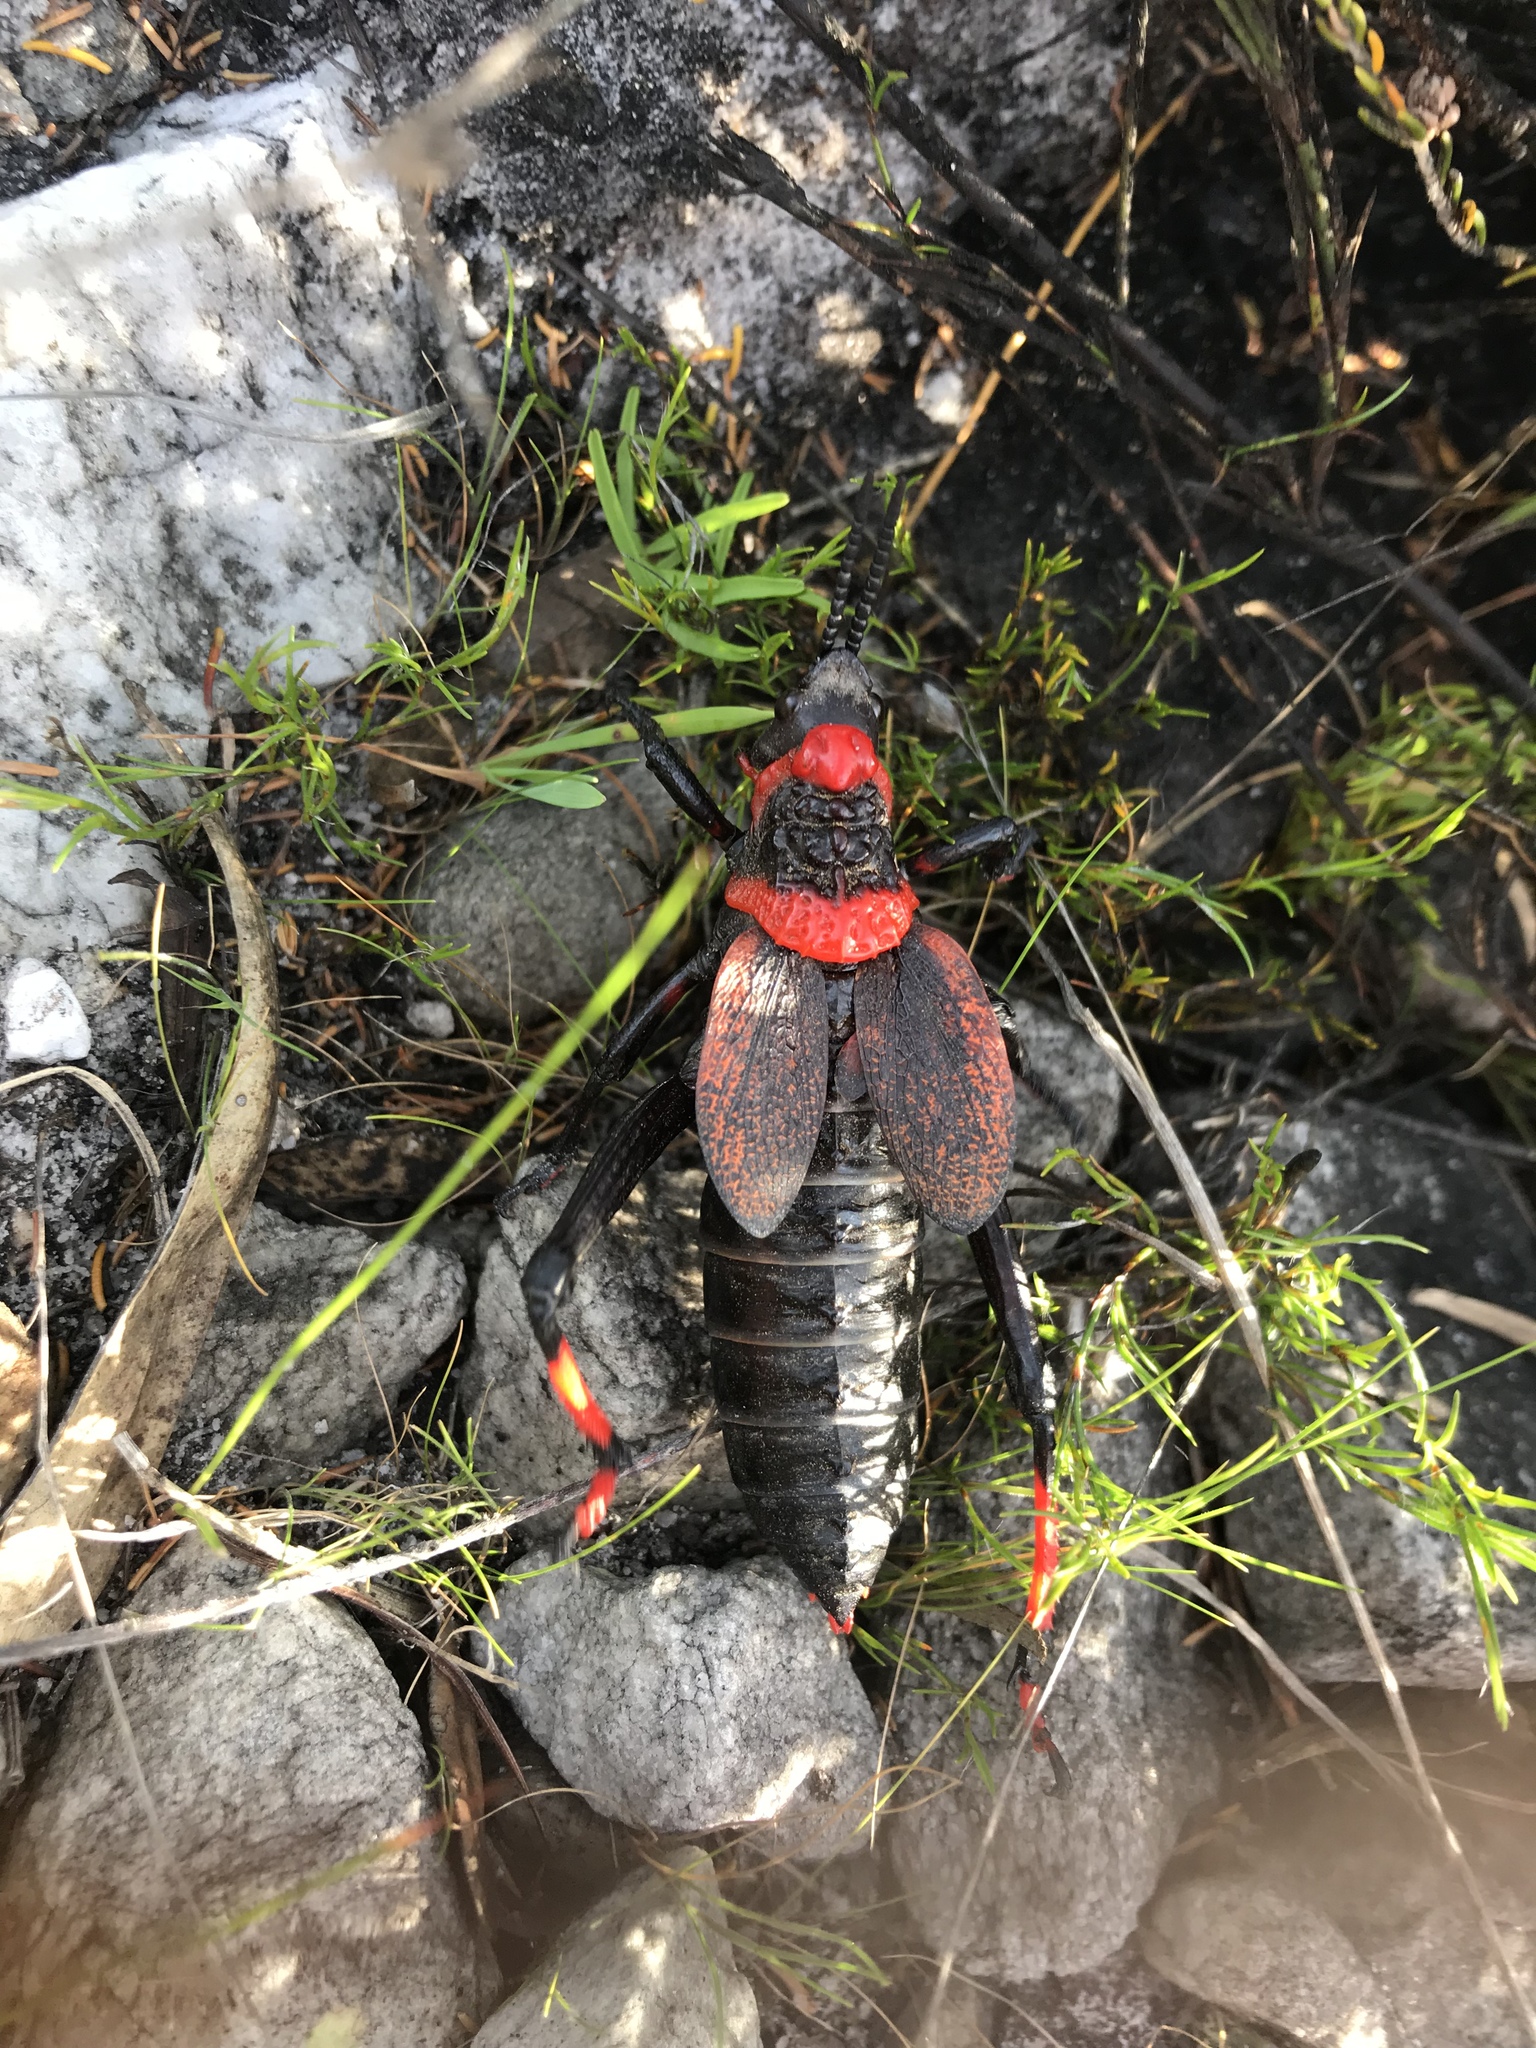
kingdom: Animalia
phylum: Arthropoda
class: Insecta
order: Orthoptera
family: Pyrgomorphidae
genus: Dictyophorus
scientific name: Dictyophorus spumans
